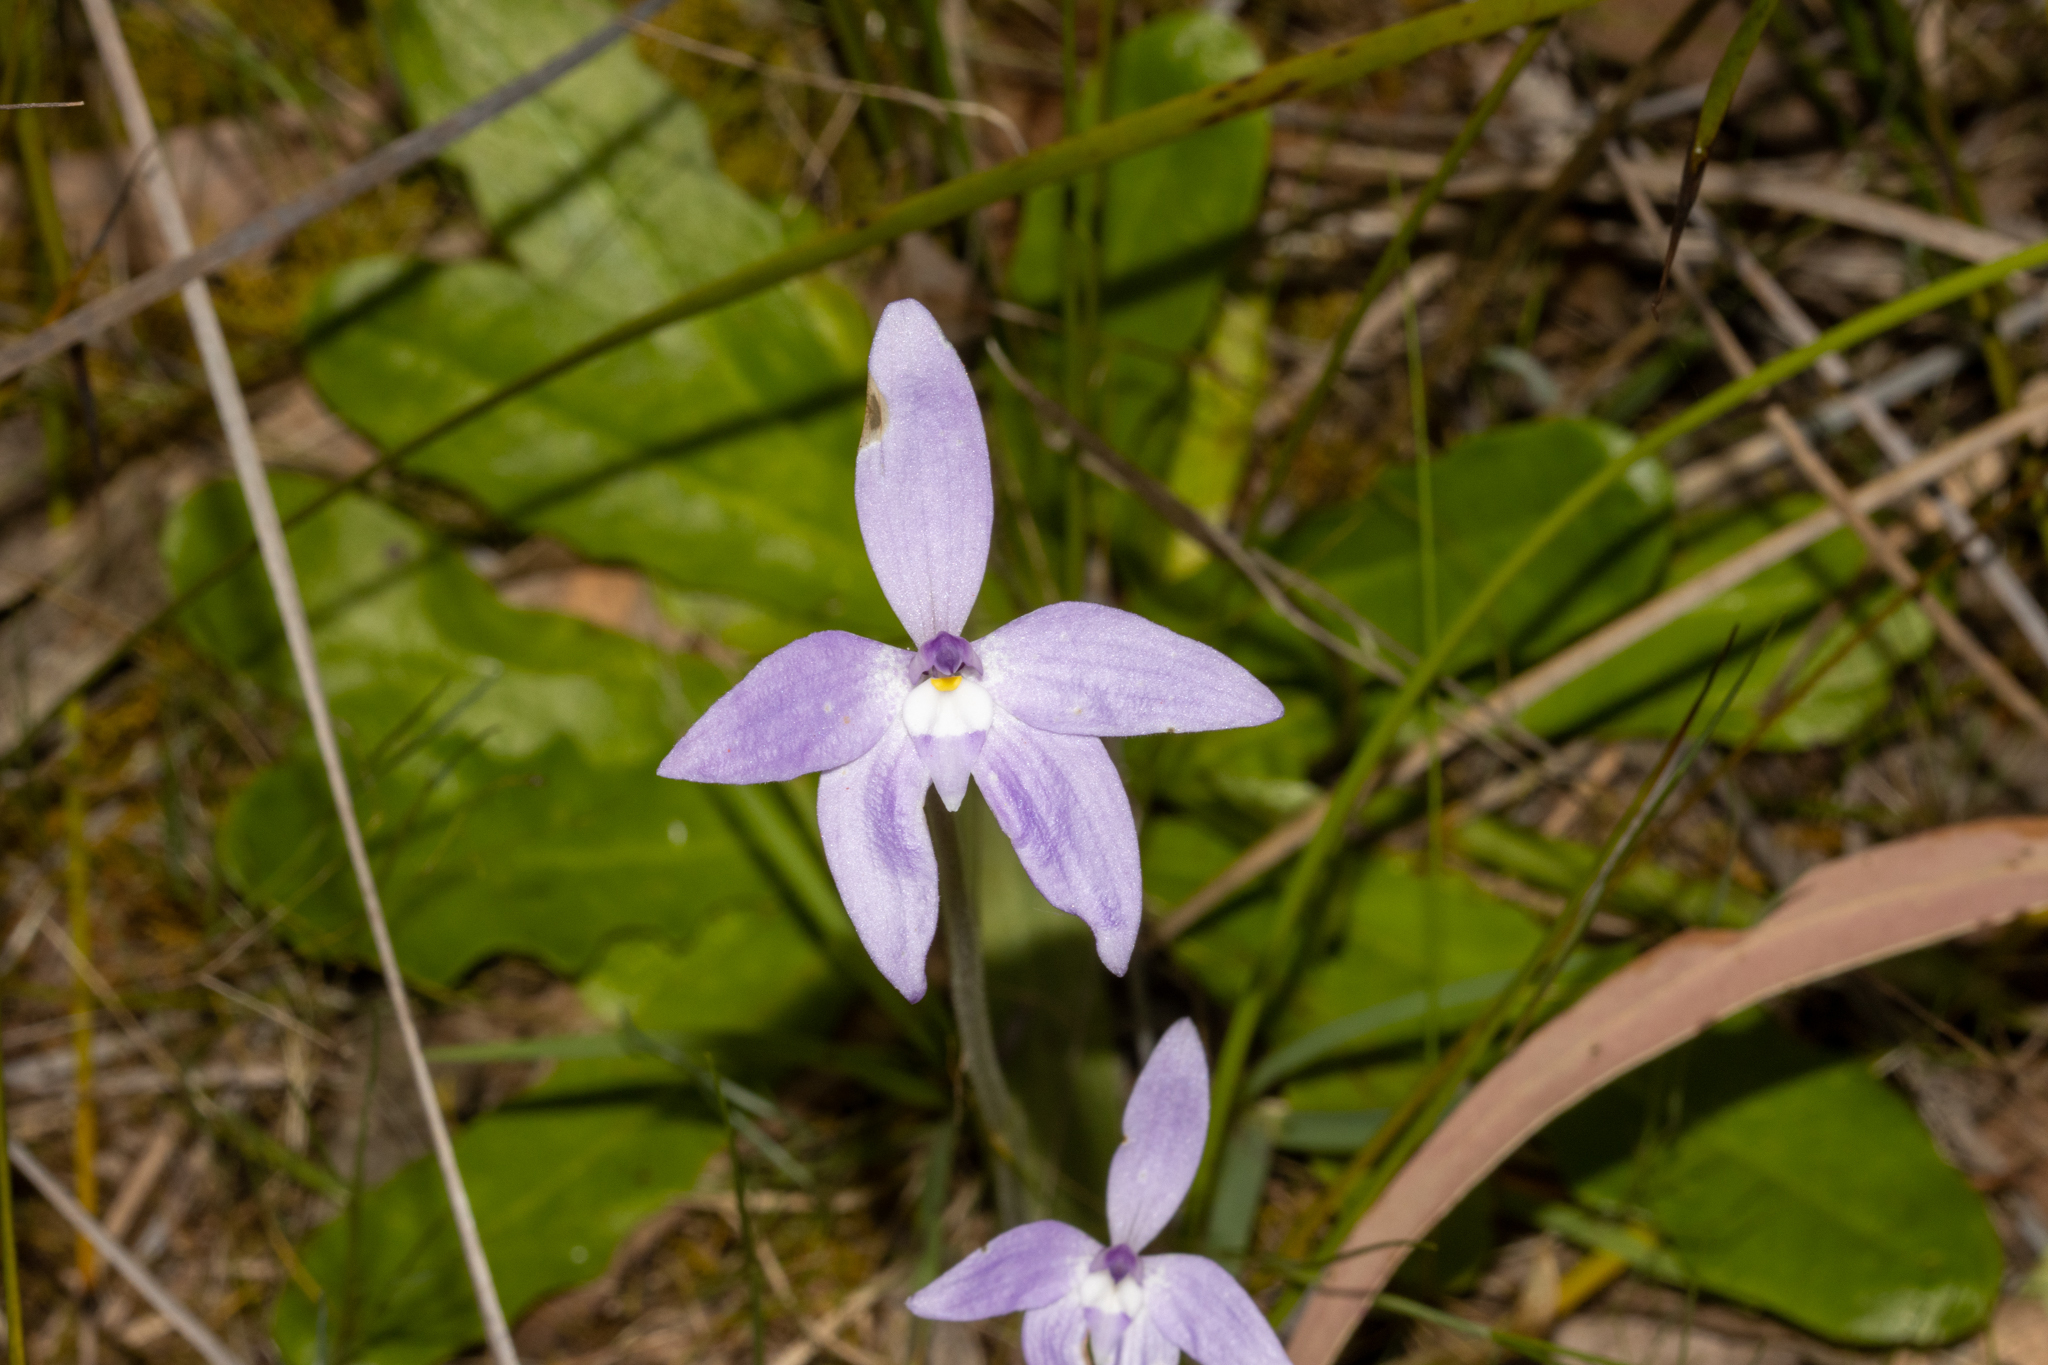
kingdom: Plantae
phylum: Tracheophyta
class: Liliopsida
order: Asparagales
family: Orchidaceae
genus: Caladenia
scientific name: Caladenia major
